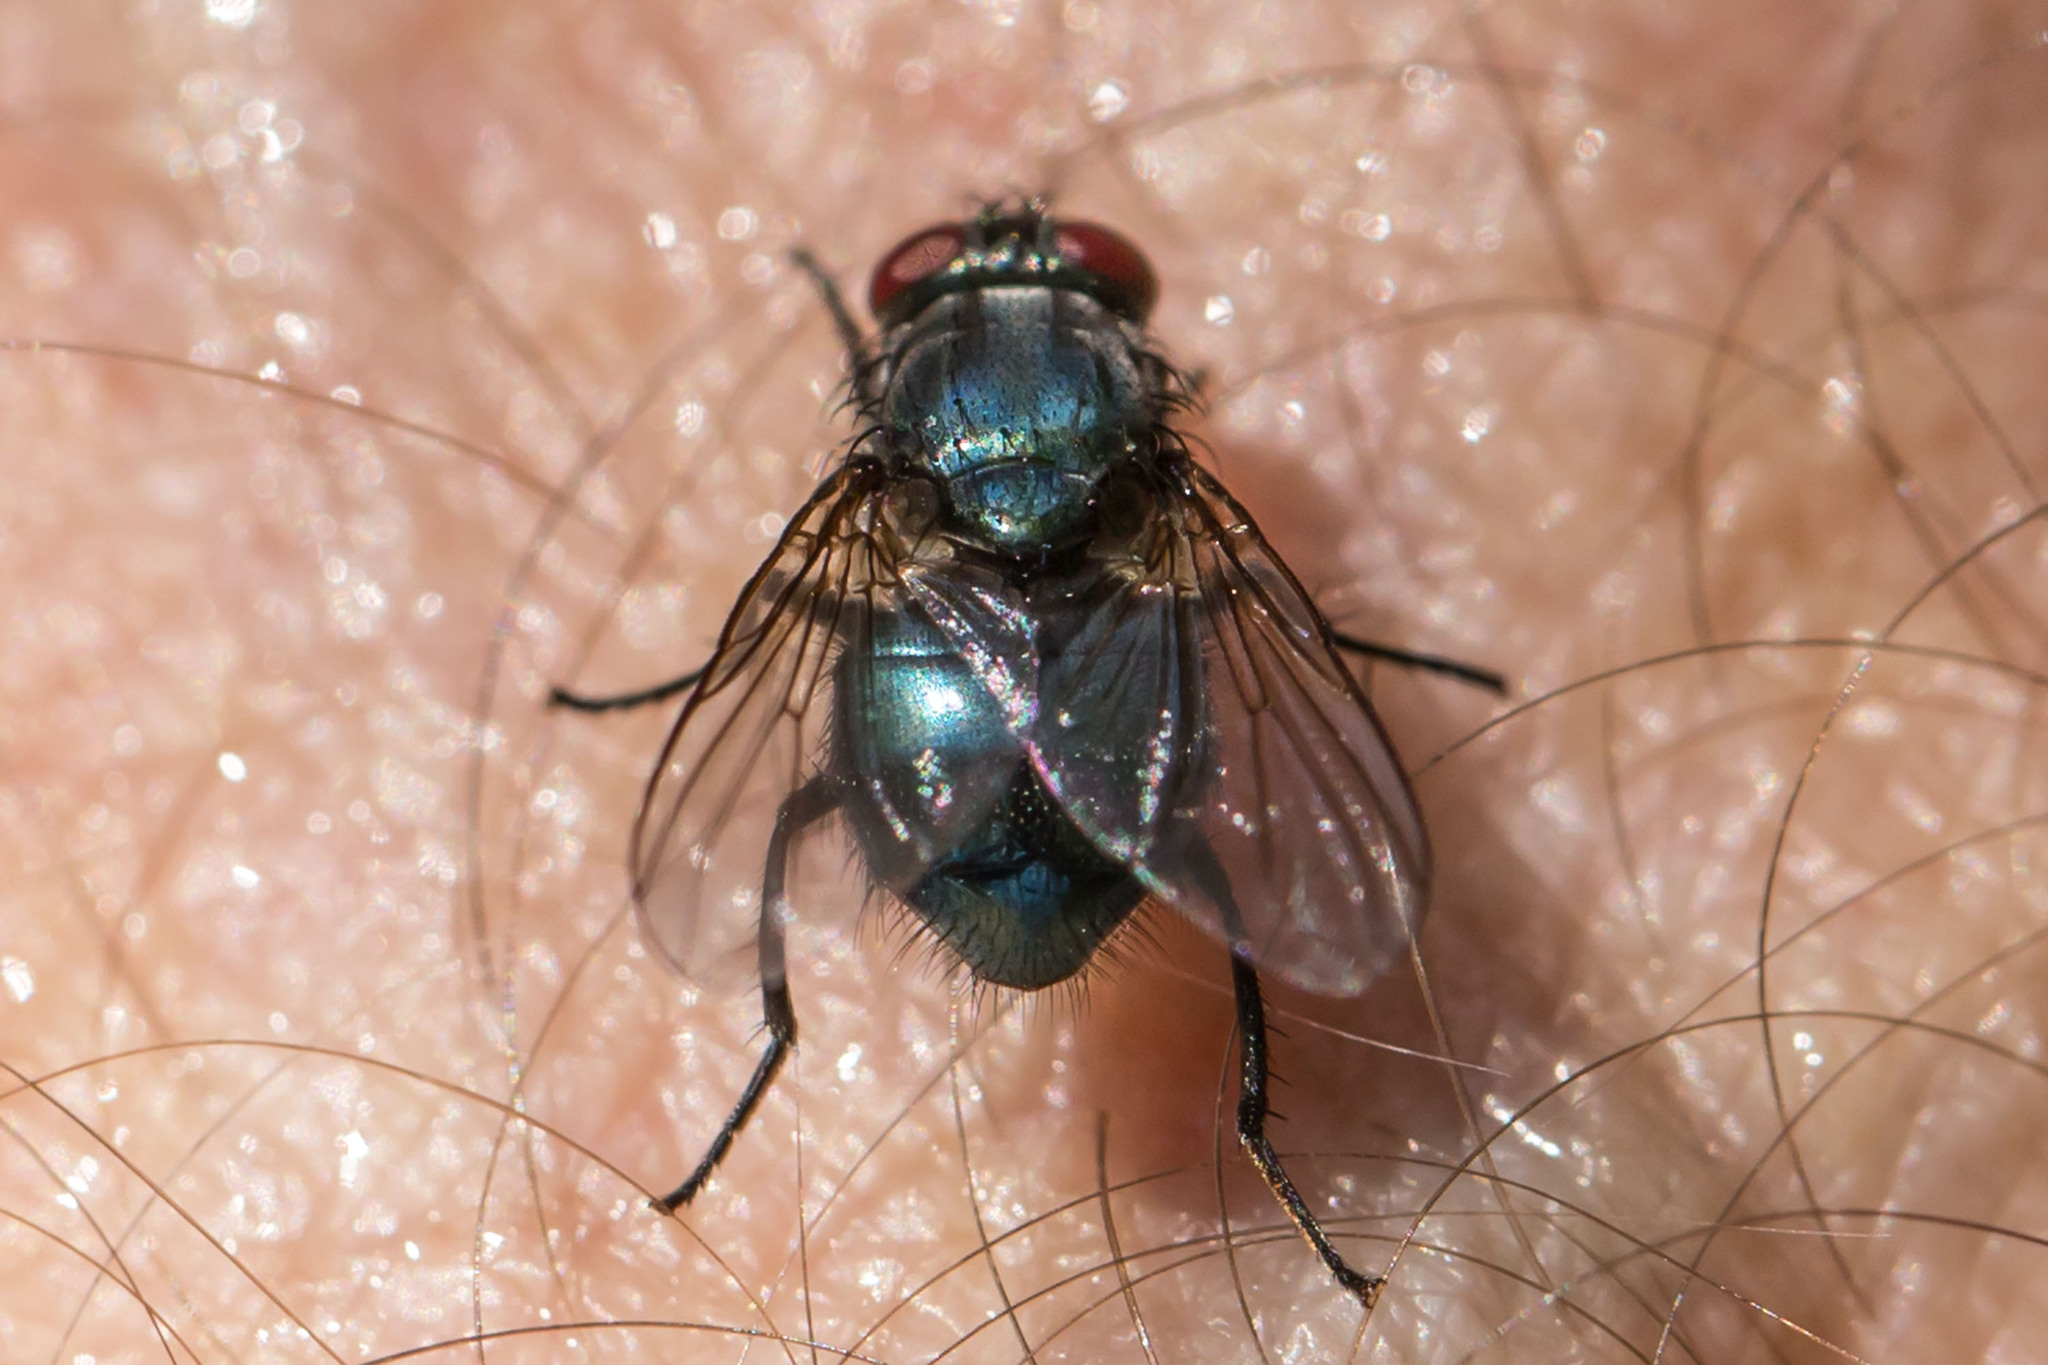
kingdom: Animalia
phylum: Arthropoda
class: Insecta
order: Diptera
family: Muscidae
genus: Eudasyphora
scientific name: Eudasyphora cyanicolor
